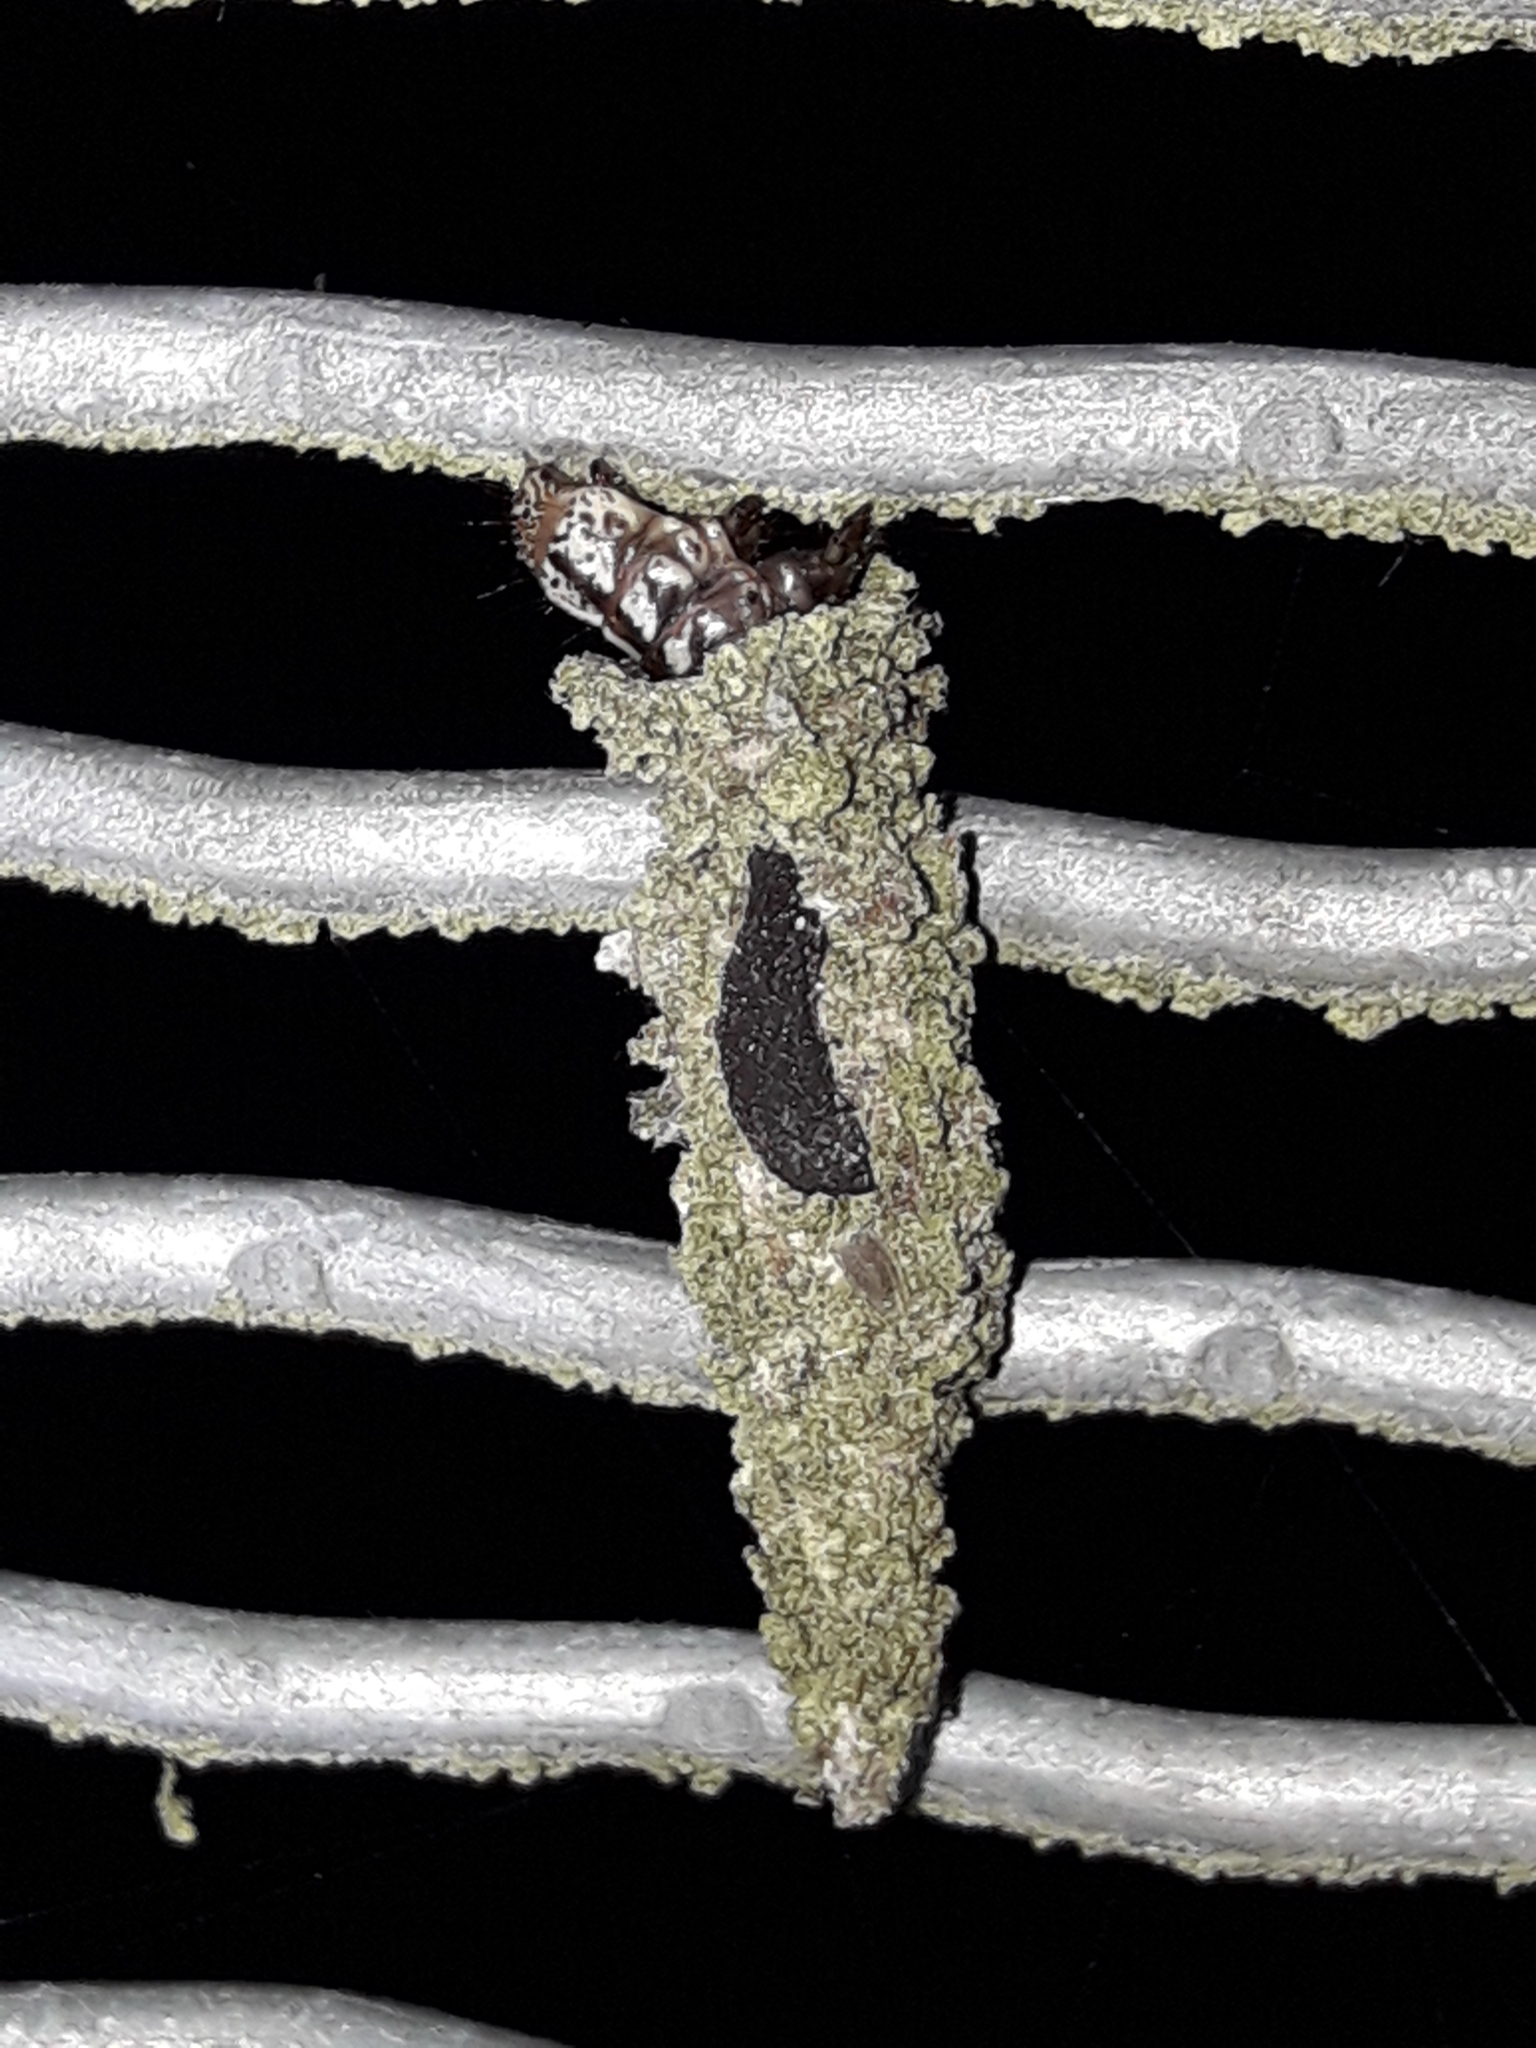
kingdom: Animalia
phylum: Arthropoda
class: Insecta
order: Lepidoptera
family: Psychidae
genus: Liothula
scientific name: Liothula omnivora
